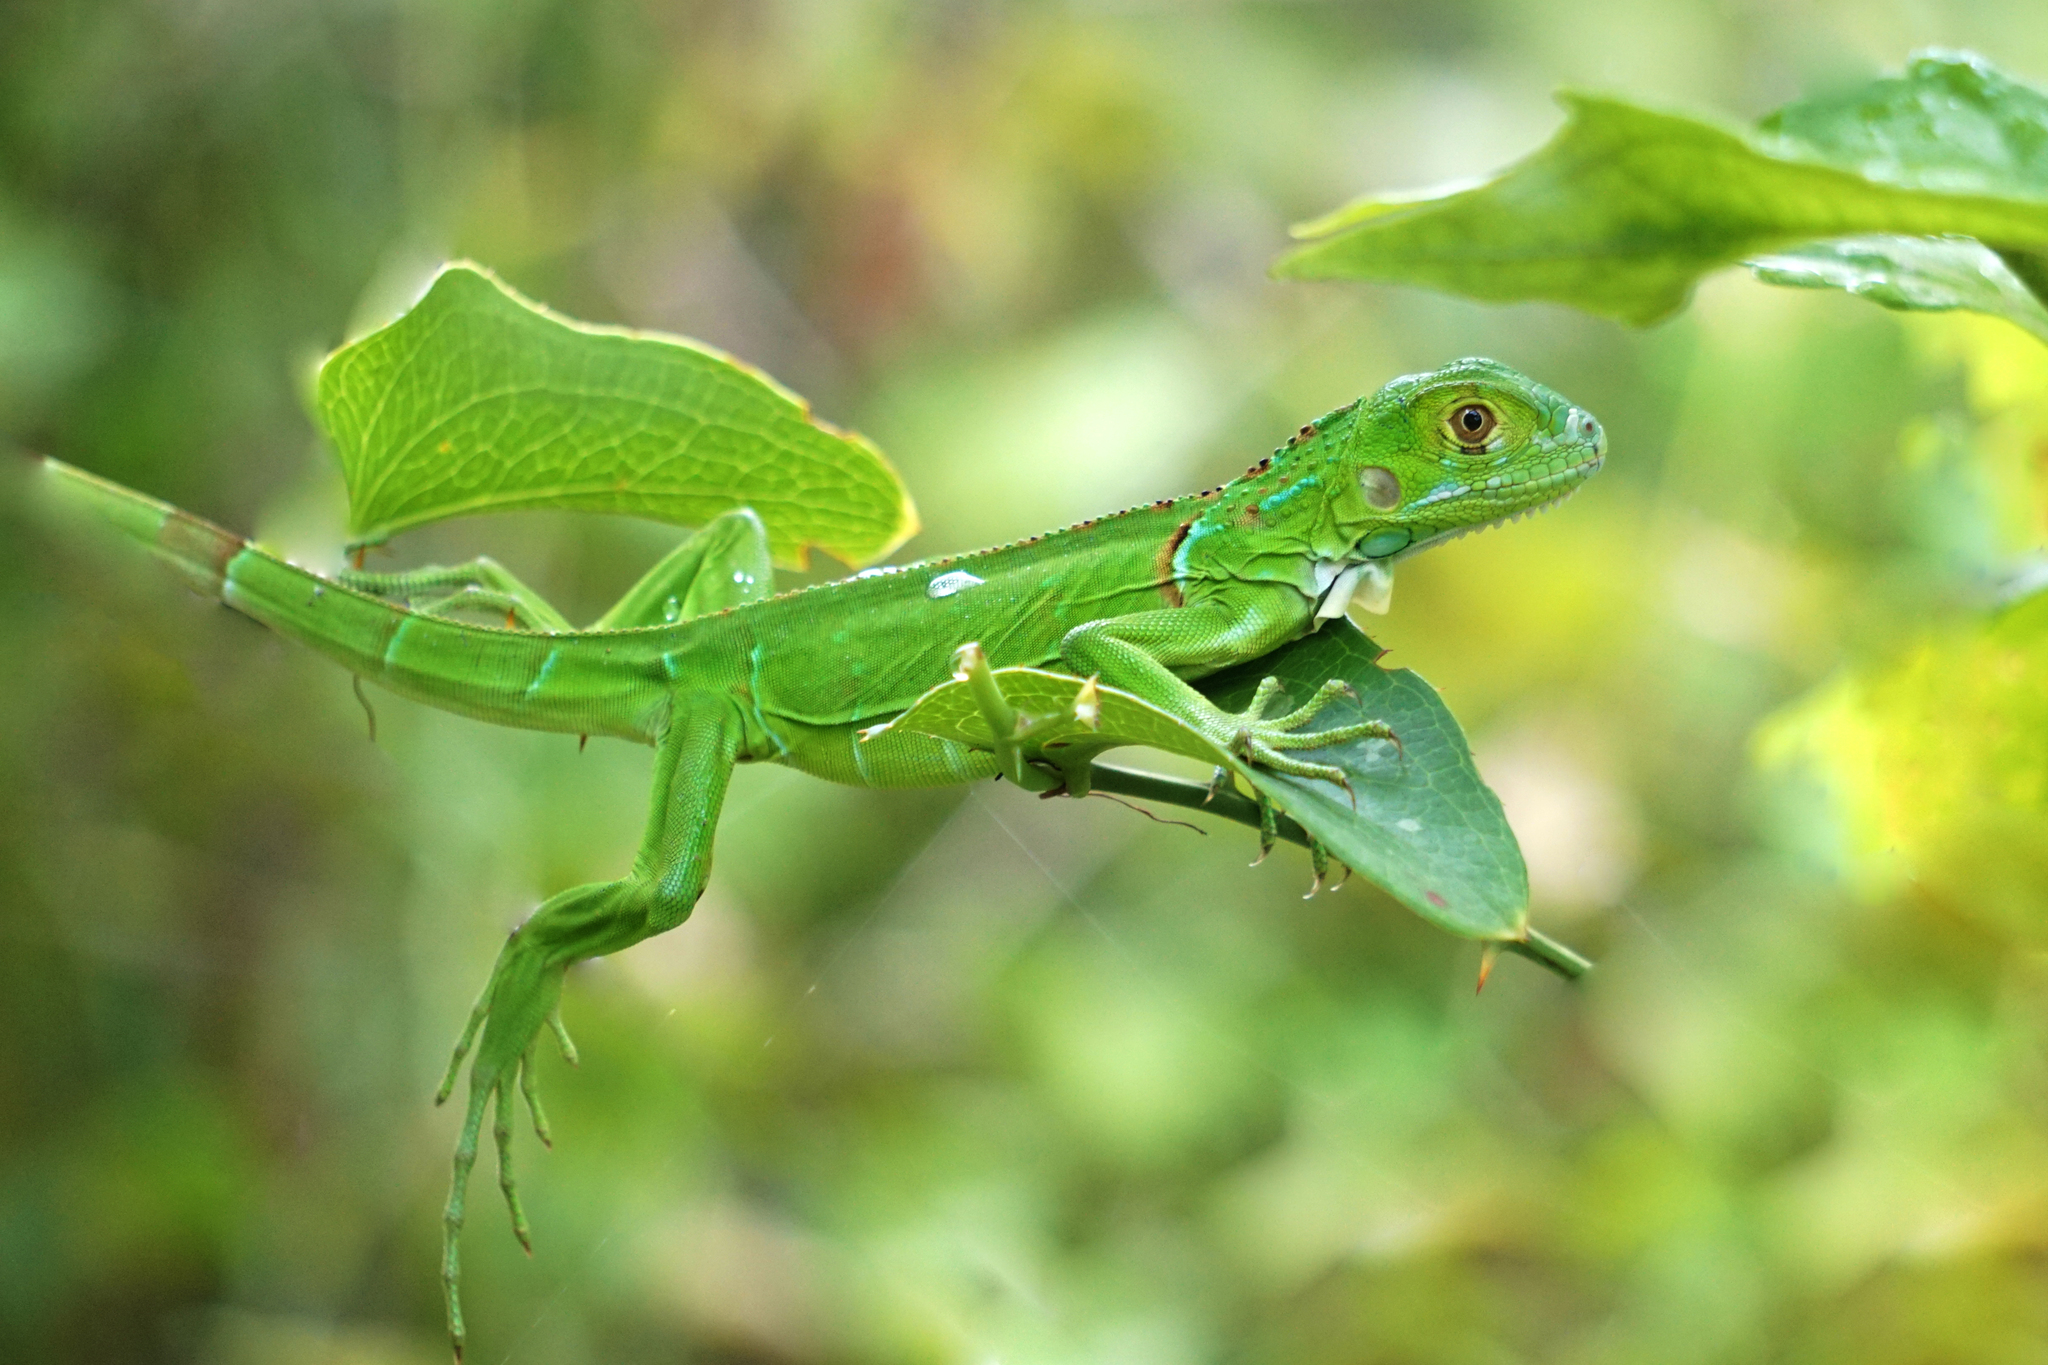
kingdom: Animalia
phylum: Chordata
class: Squamata
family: Iguanidae
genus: Iguana
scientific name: Iguana iguana
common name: Green iguana
